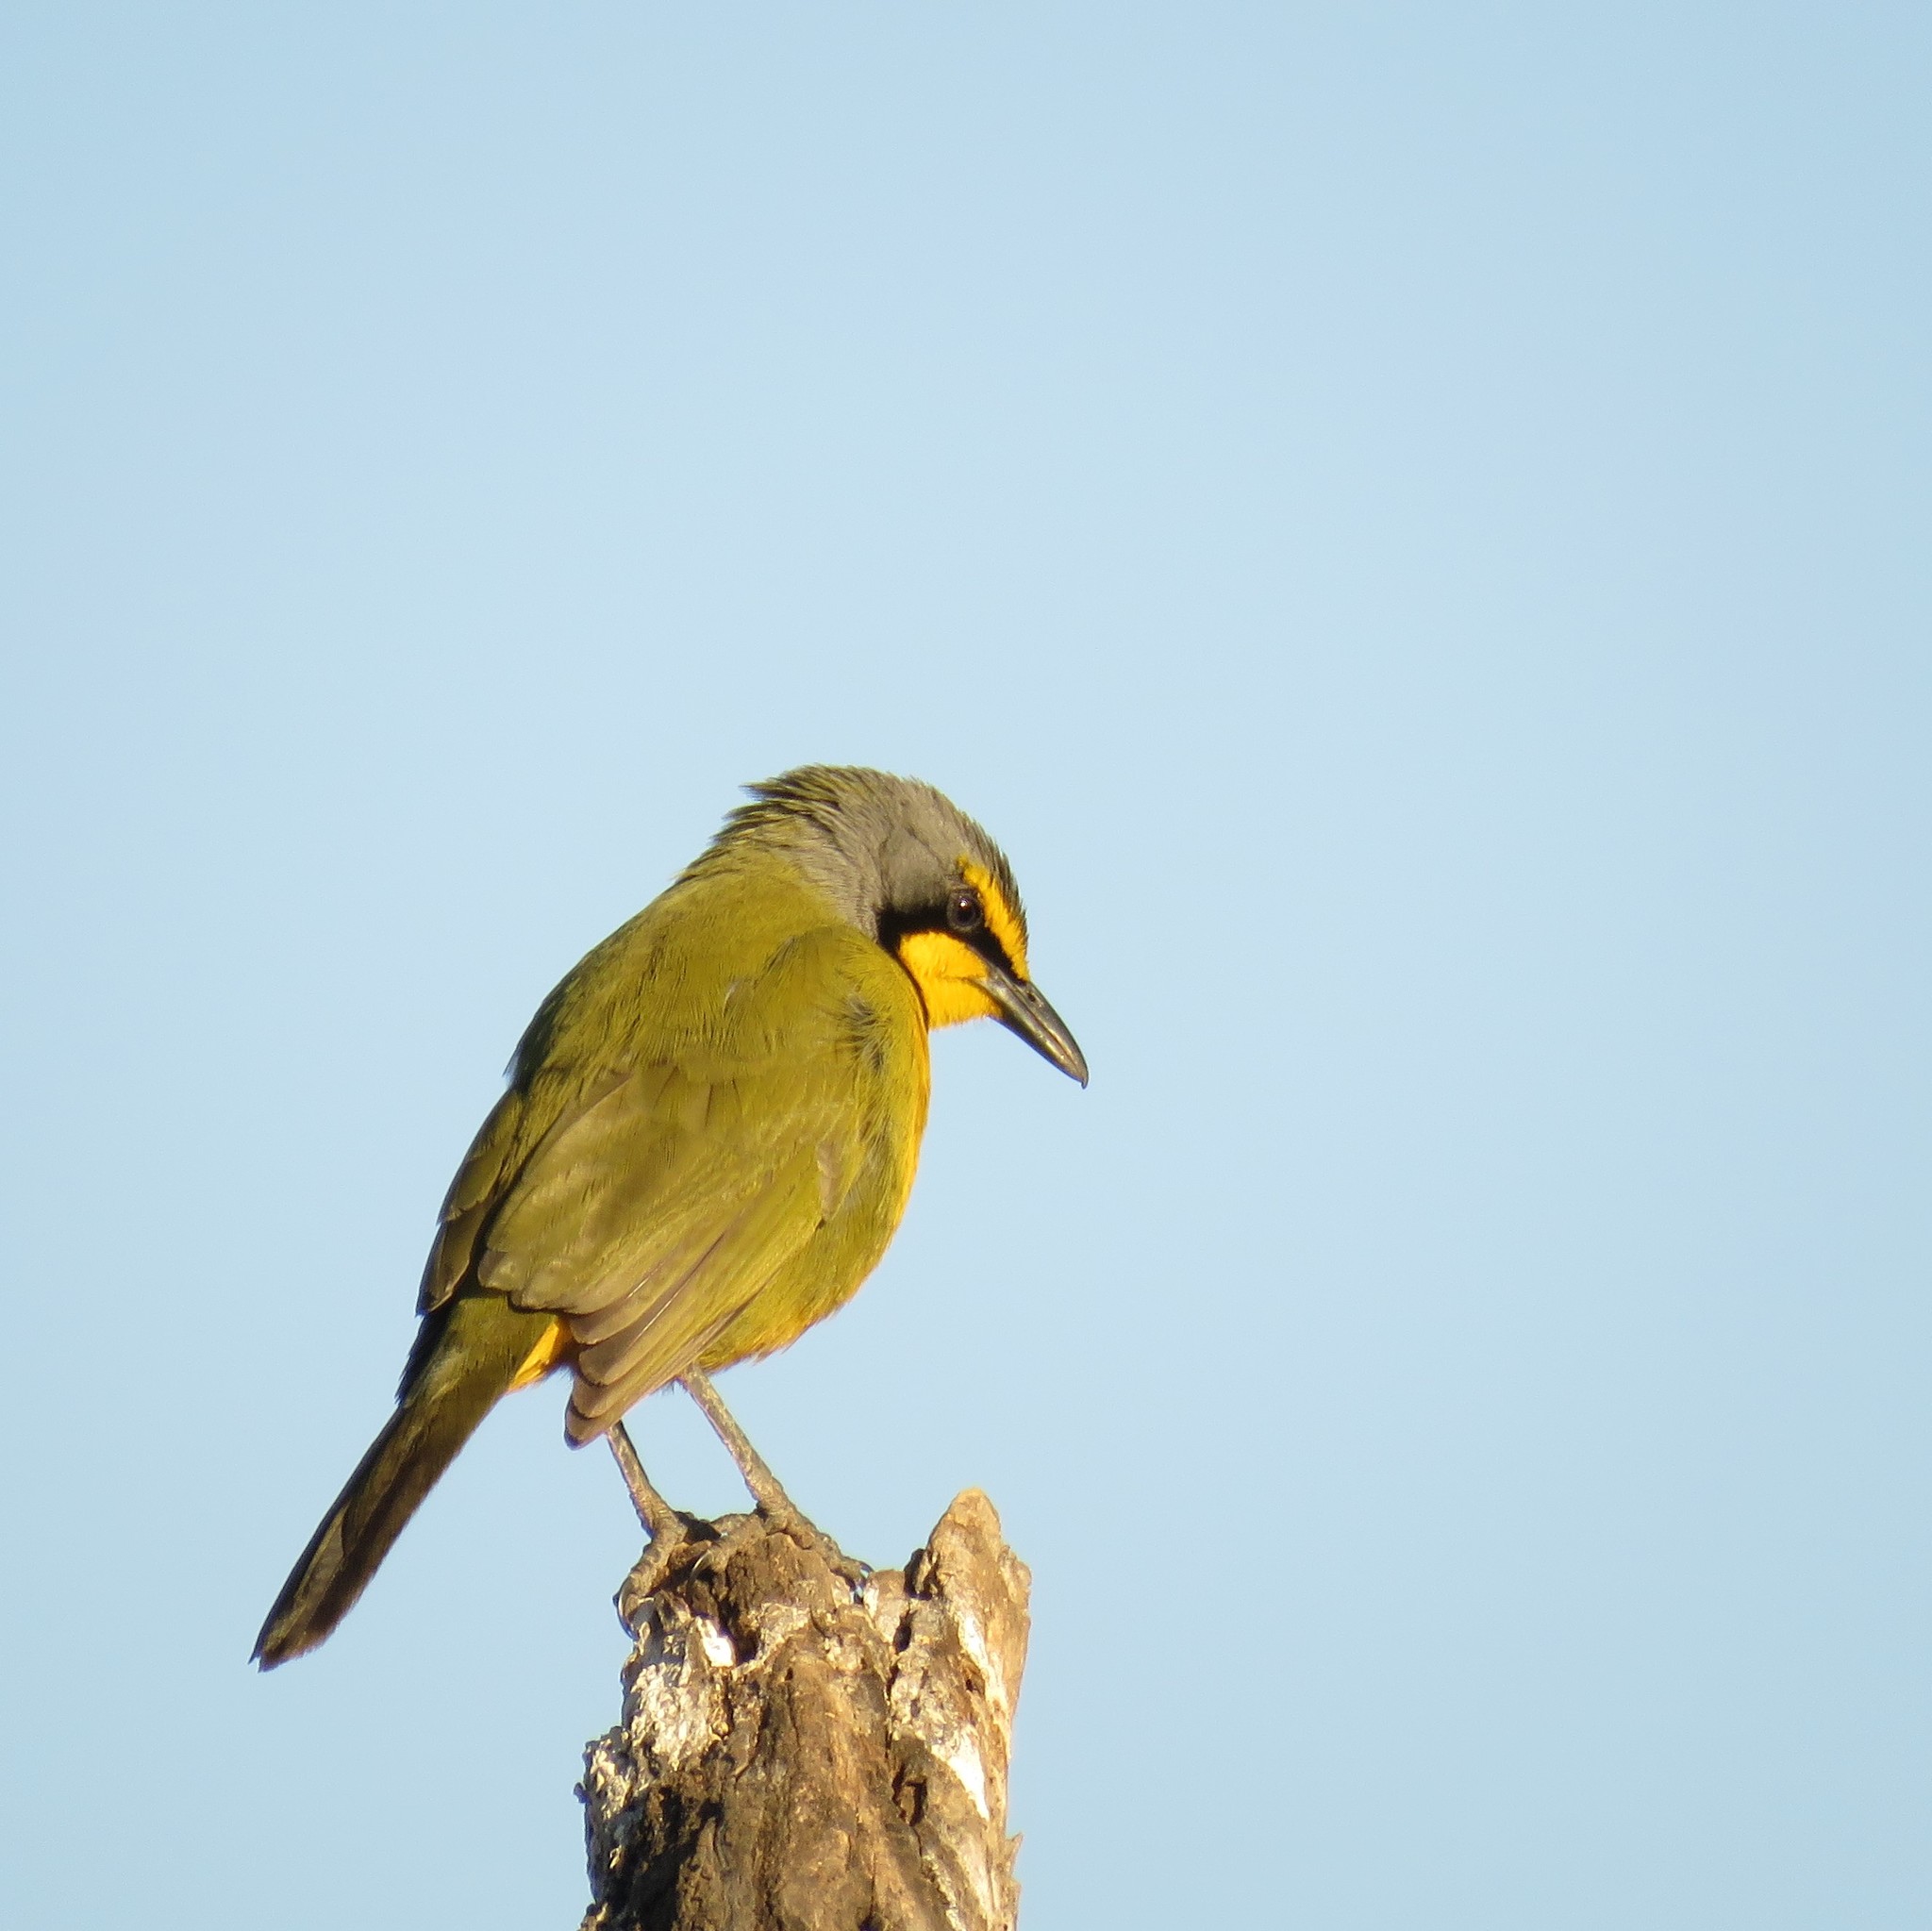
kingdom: Animalia
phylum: Chordata
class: Aves
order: Passeriformes
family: Malaconotidae
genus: Telophorus
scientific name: Telophorus zeylonus
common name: Bokmakierie
